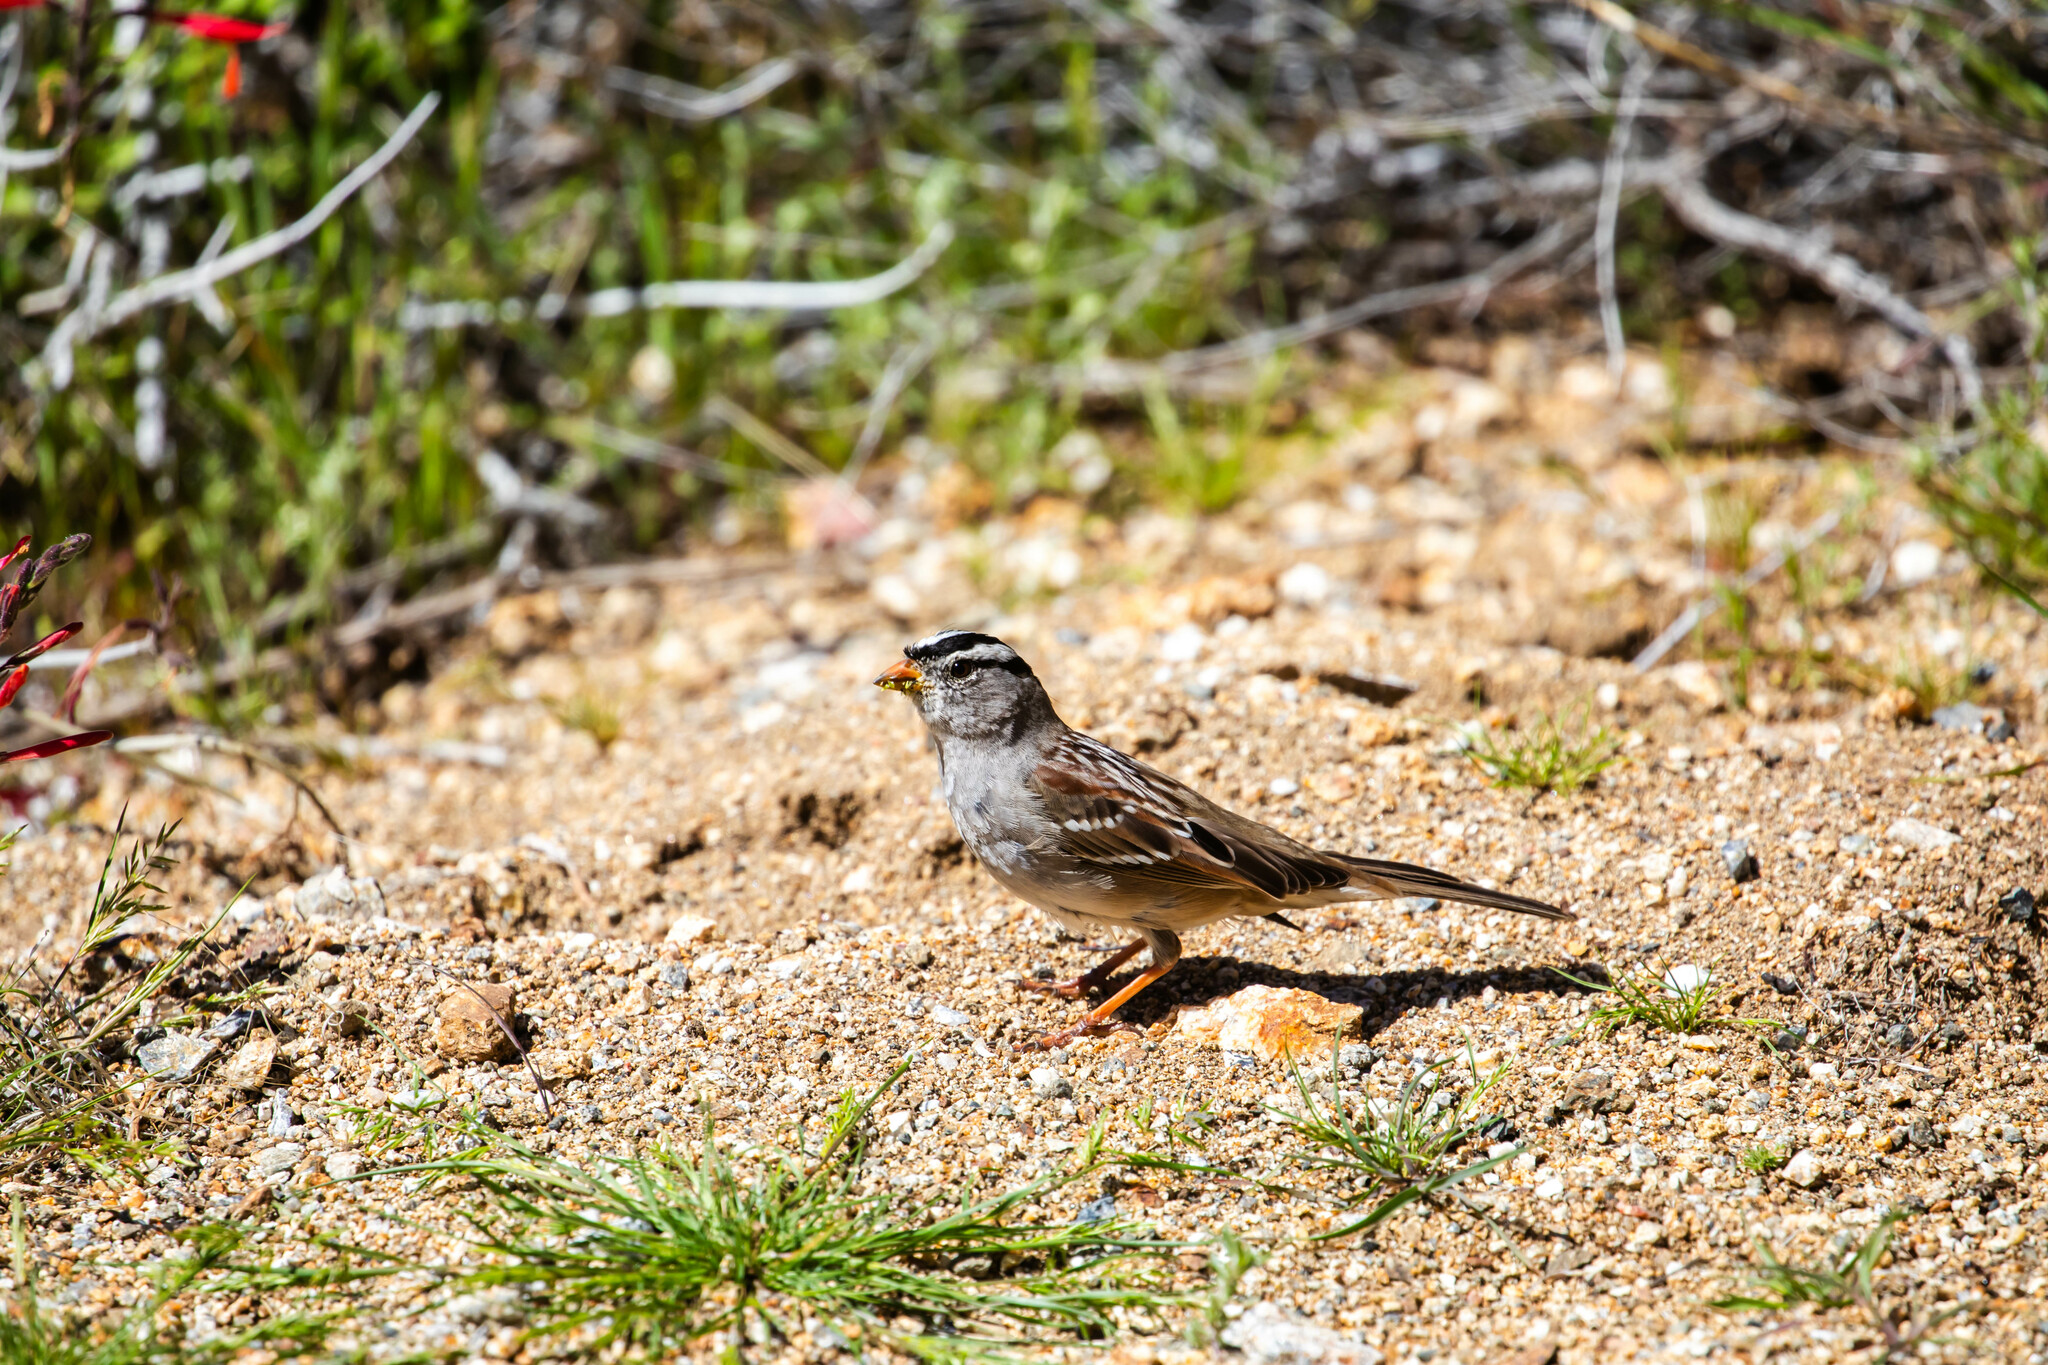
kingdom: Animalia
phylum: Chordata
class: Aves
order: Passeriformes
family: Passerellidae
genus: Zonotrichia
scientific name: Zonotrichia leucophrys
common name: White-crowned sparrow
